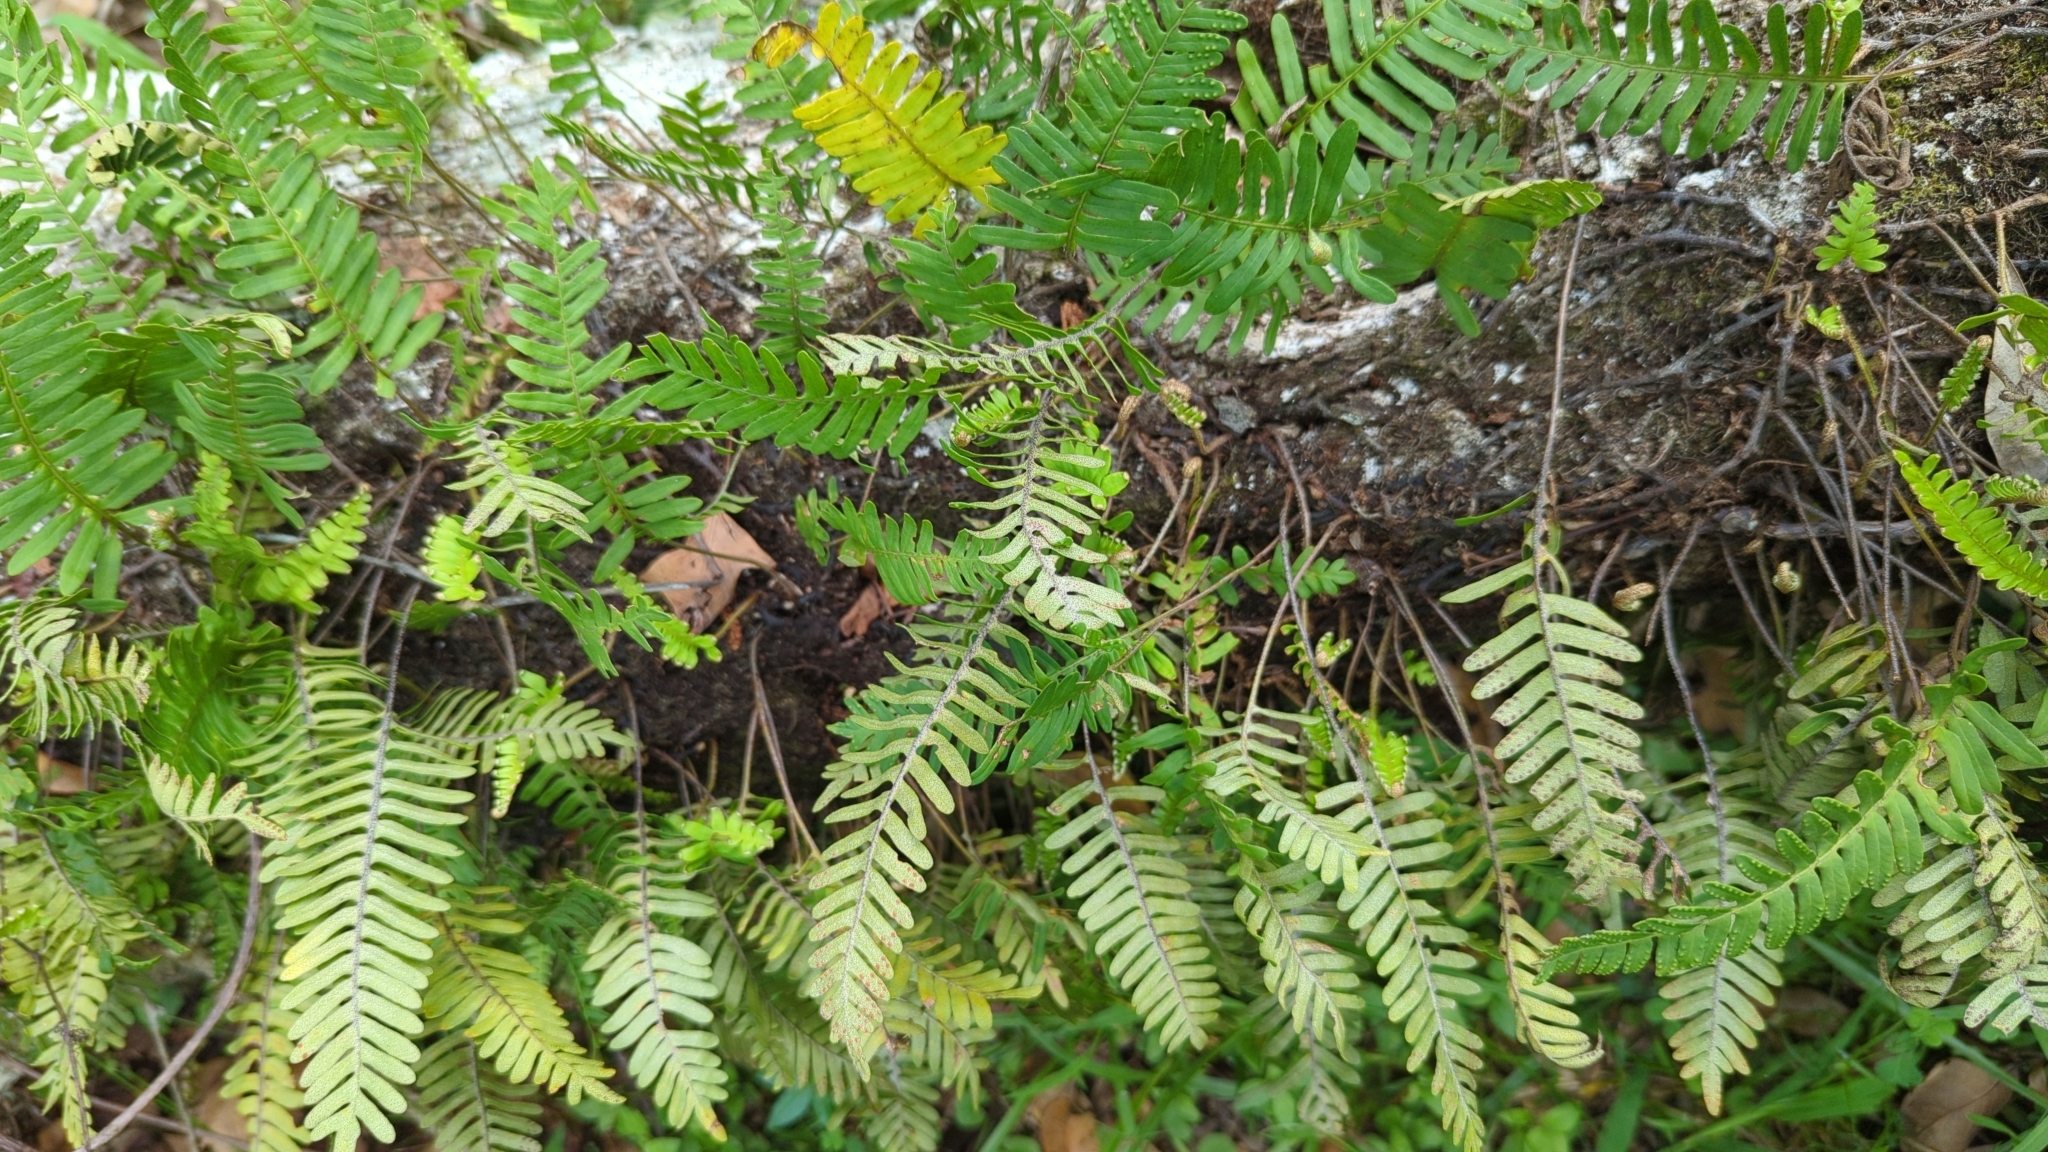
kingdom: Plantae
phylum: Tracheophyta
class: Polypodiopsida
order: Polypodiales
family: Polypodiaceae
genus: Pleopeltis
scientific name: Pleopeltis michauxiana
